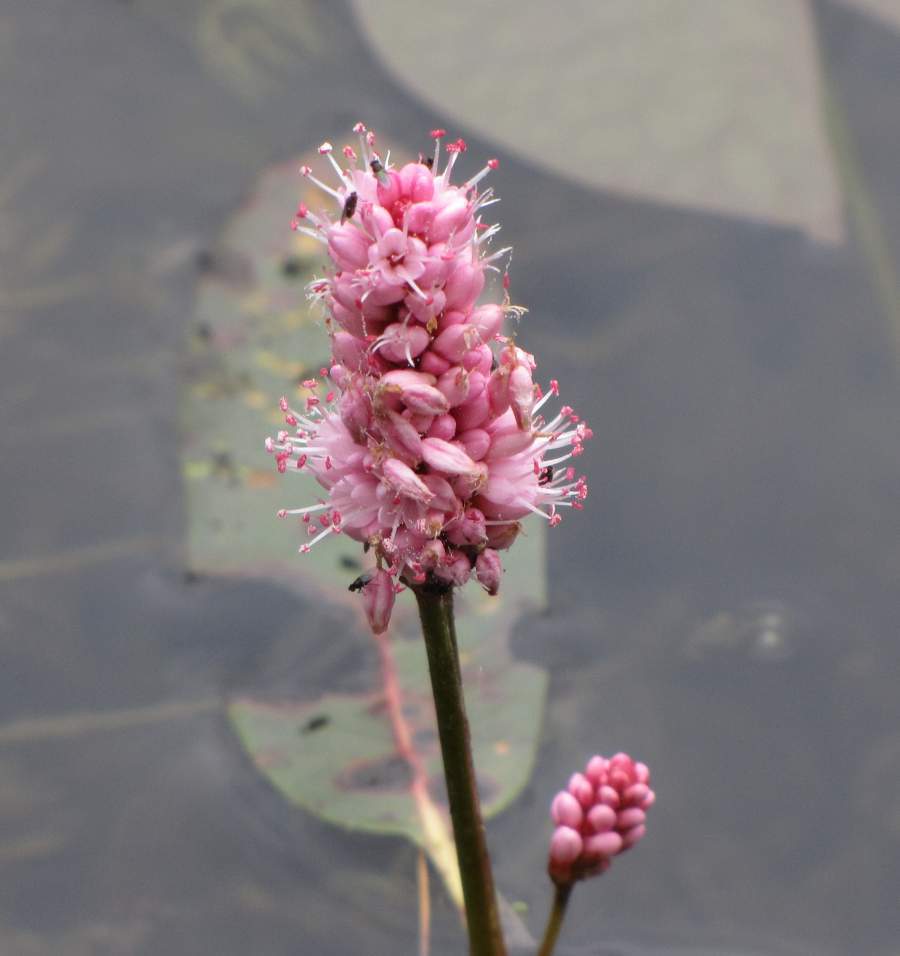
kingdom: Plantae
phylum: Tracheophyta
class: Magnoliopsida
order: Caryophyllales
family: Polygonaceae
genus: Persicaria
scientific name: Persicaria amphibia
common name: Amphibious bistort
